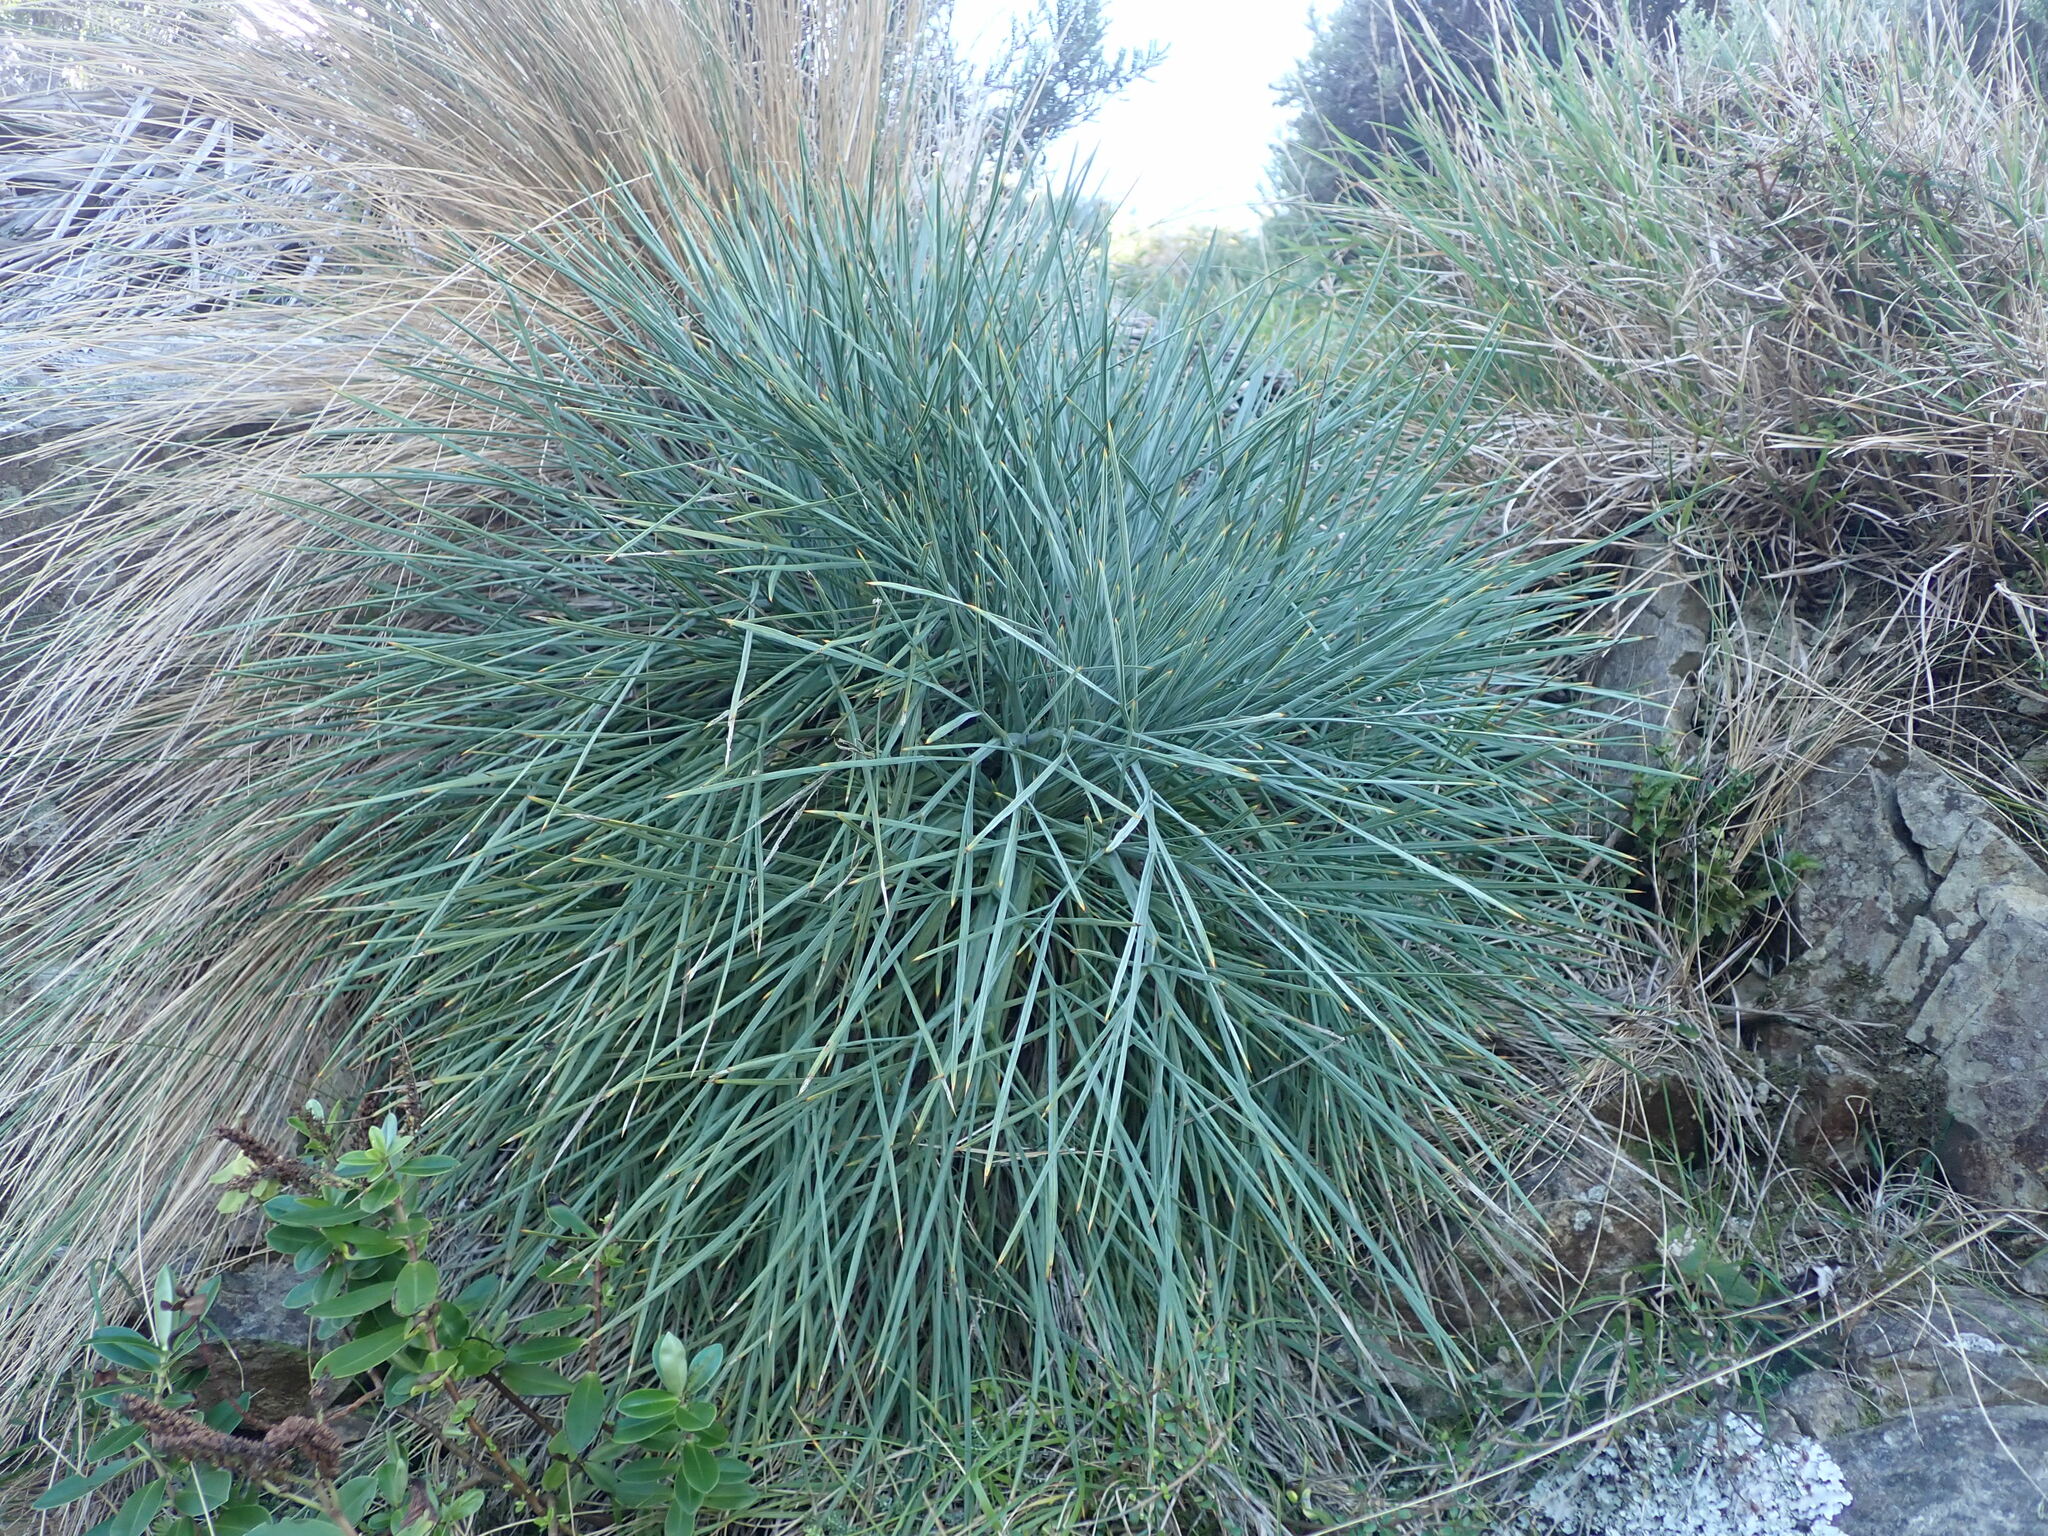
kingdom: Plantae
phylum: Tracheophyta
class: Magnoliopsida
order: Apiales
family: Apiaceae
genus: Aciphylla
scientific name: Aciphylla squarrosa
